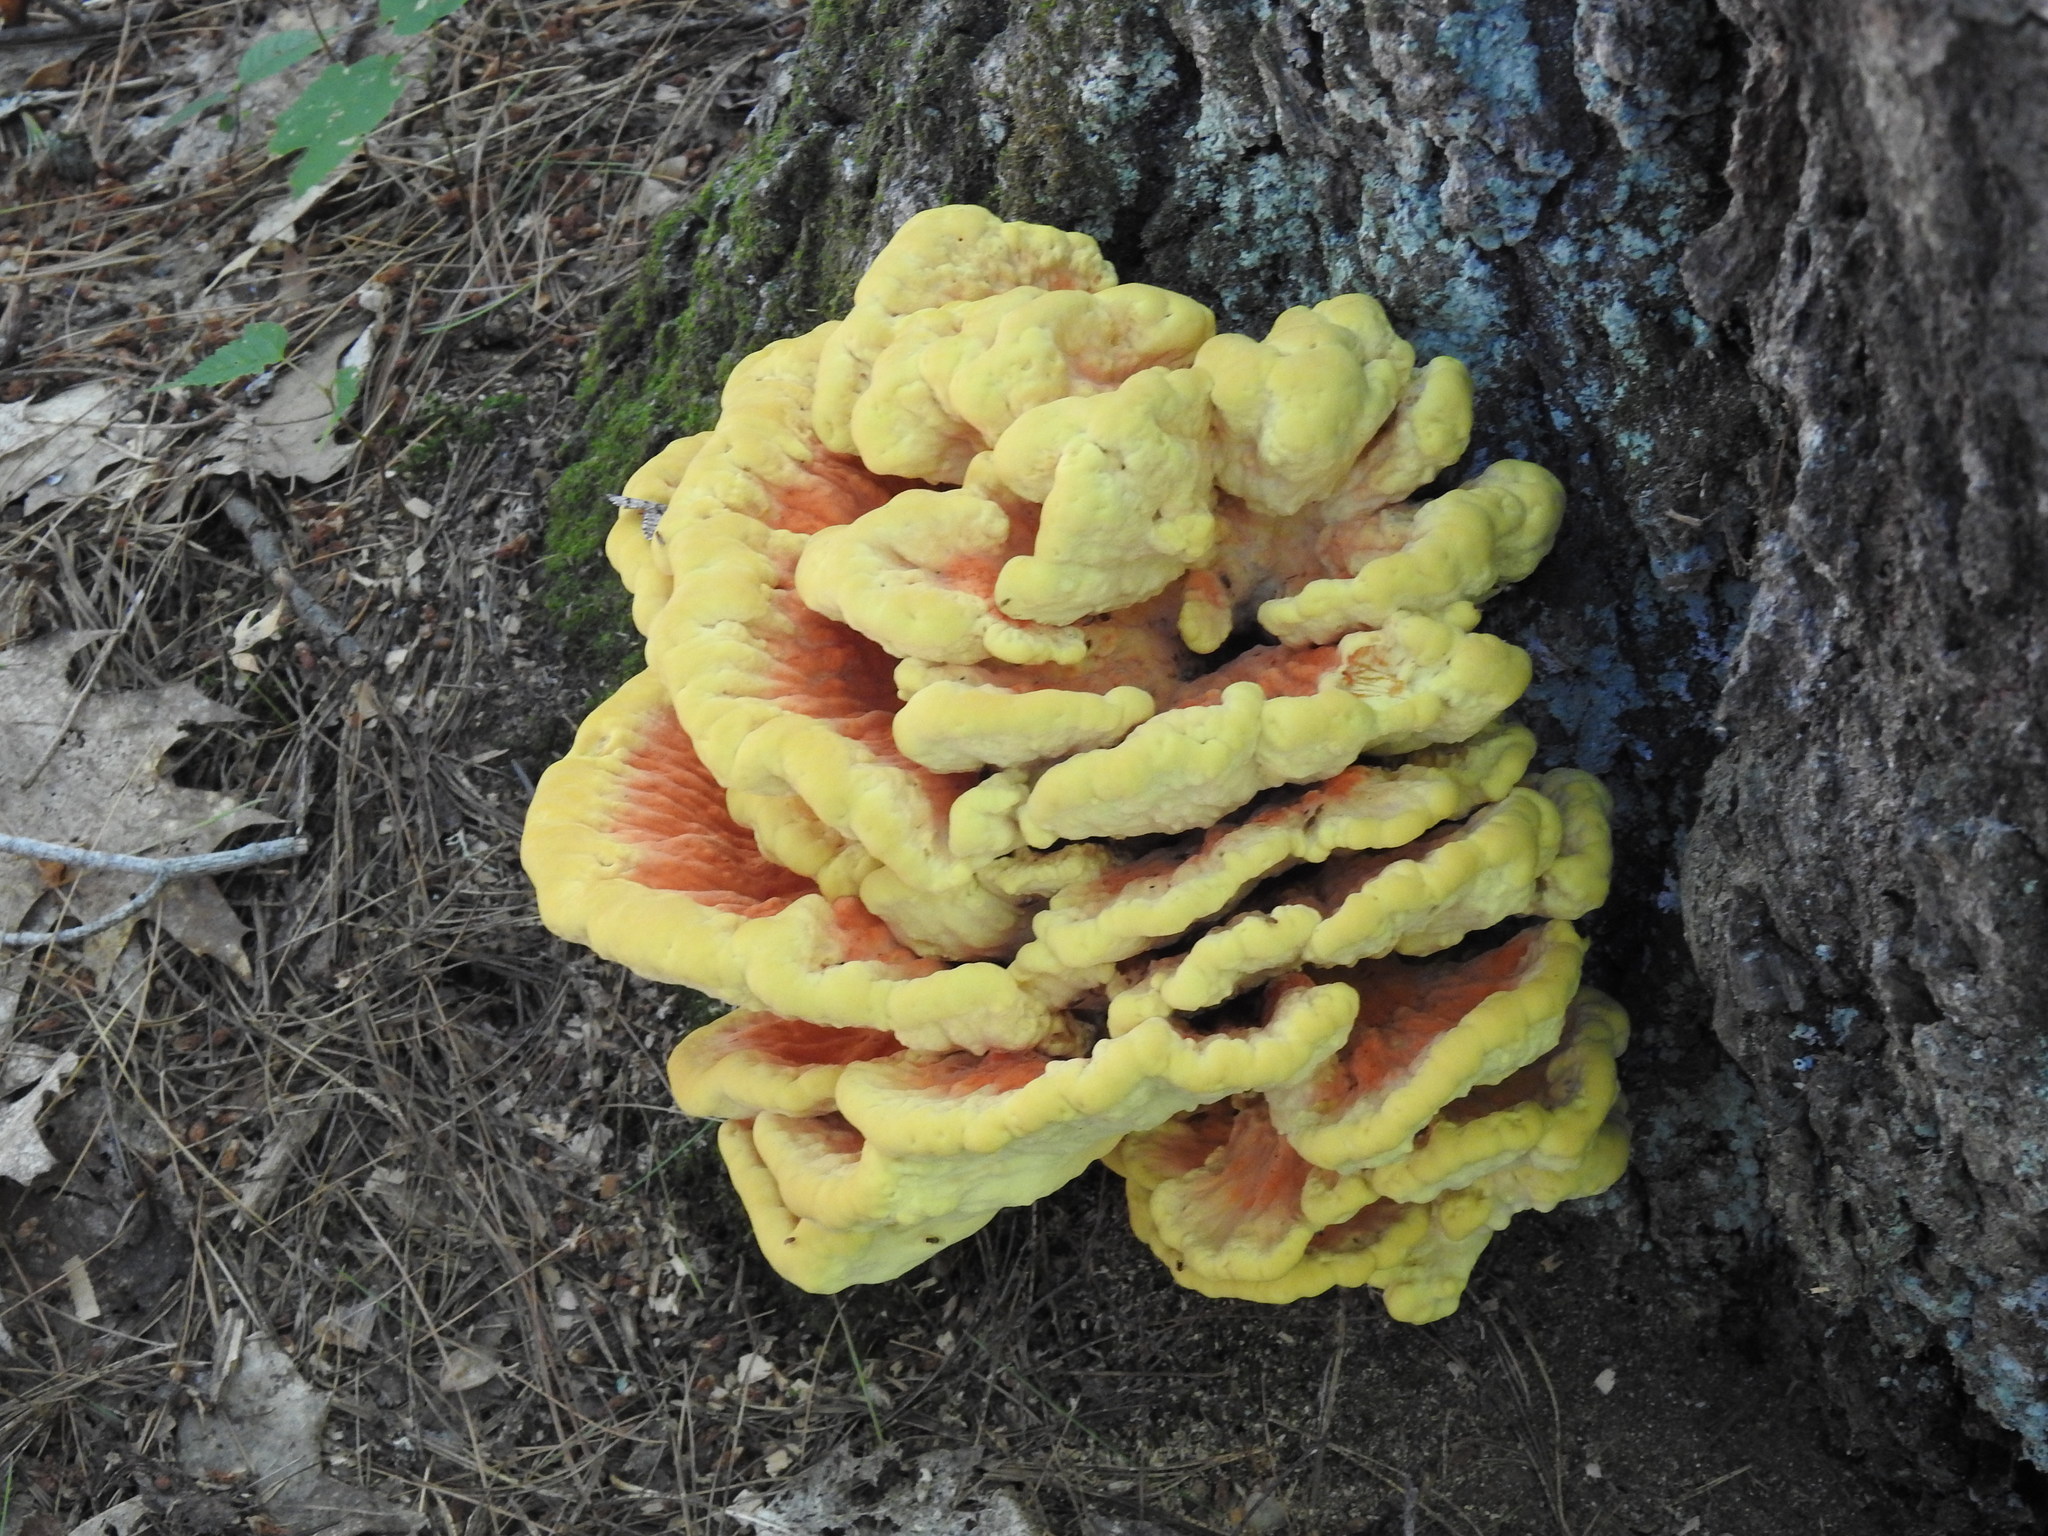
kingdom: Fungi
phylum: Basidiomycota
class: Agaricomycetes
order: Polyporales
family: Laetiporaceae
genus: Laetiporus
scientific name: Laetiporus sulphureus
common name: Chicken of the woods
